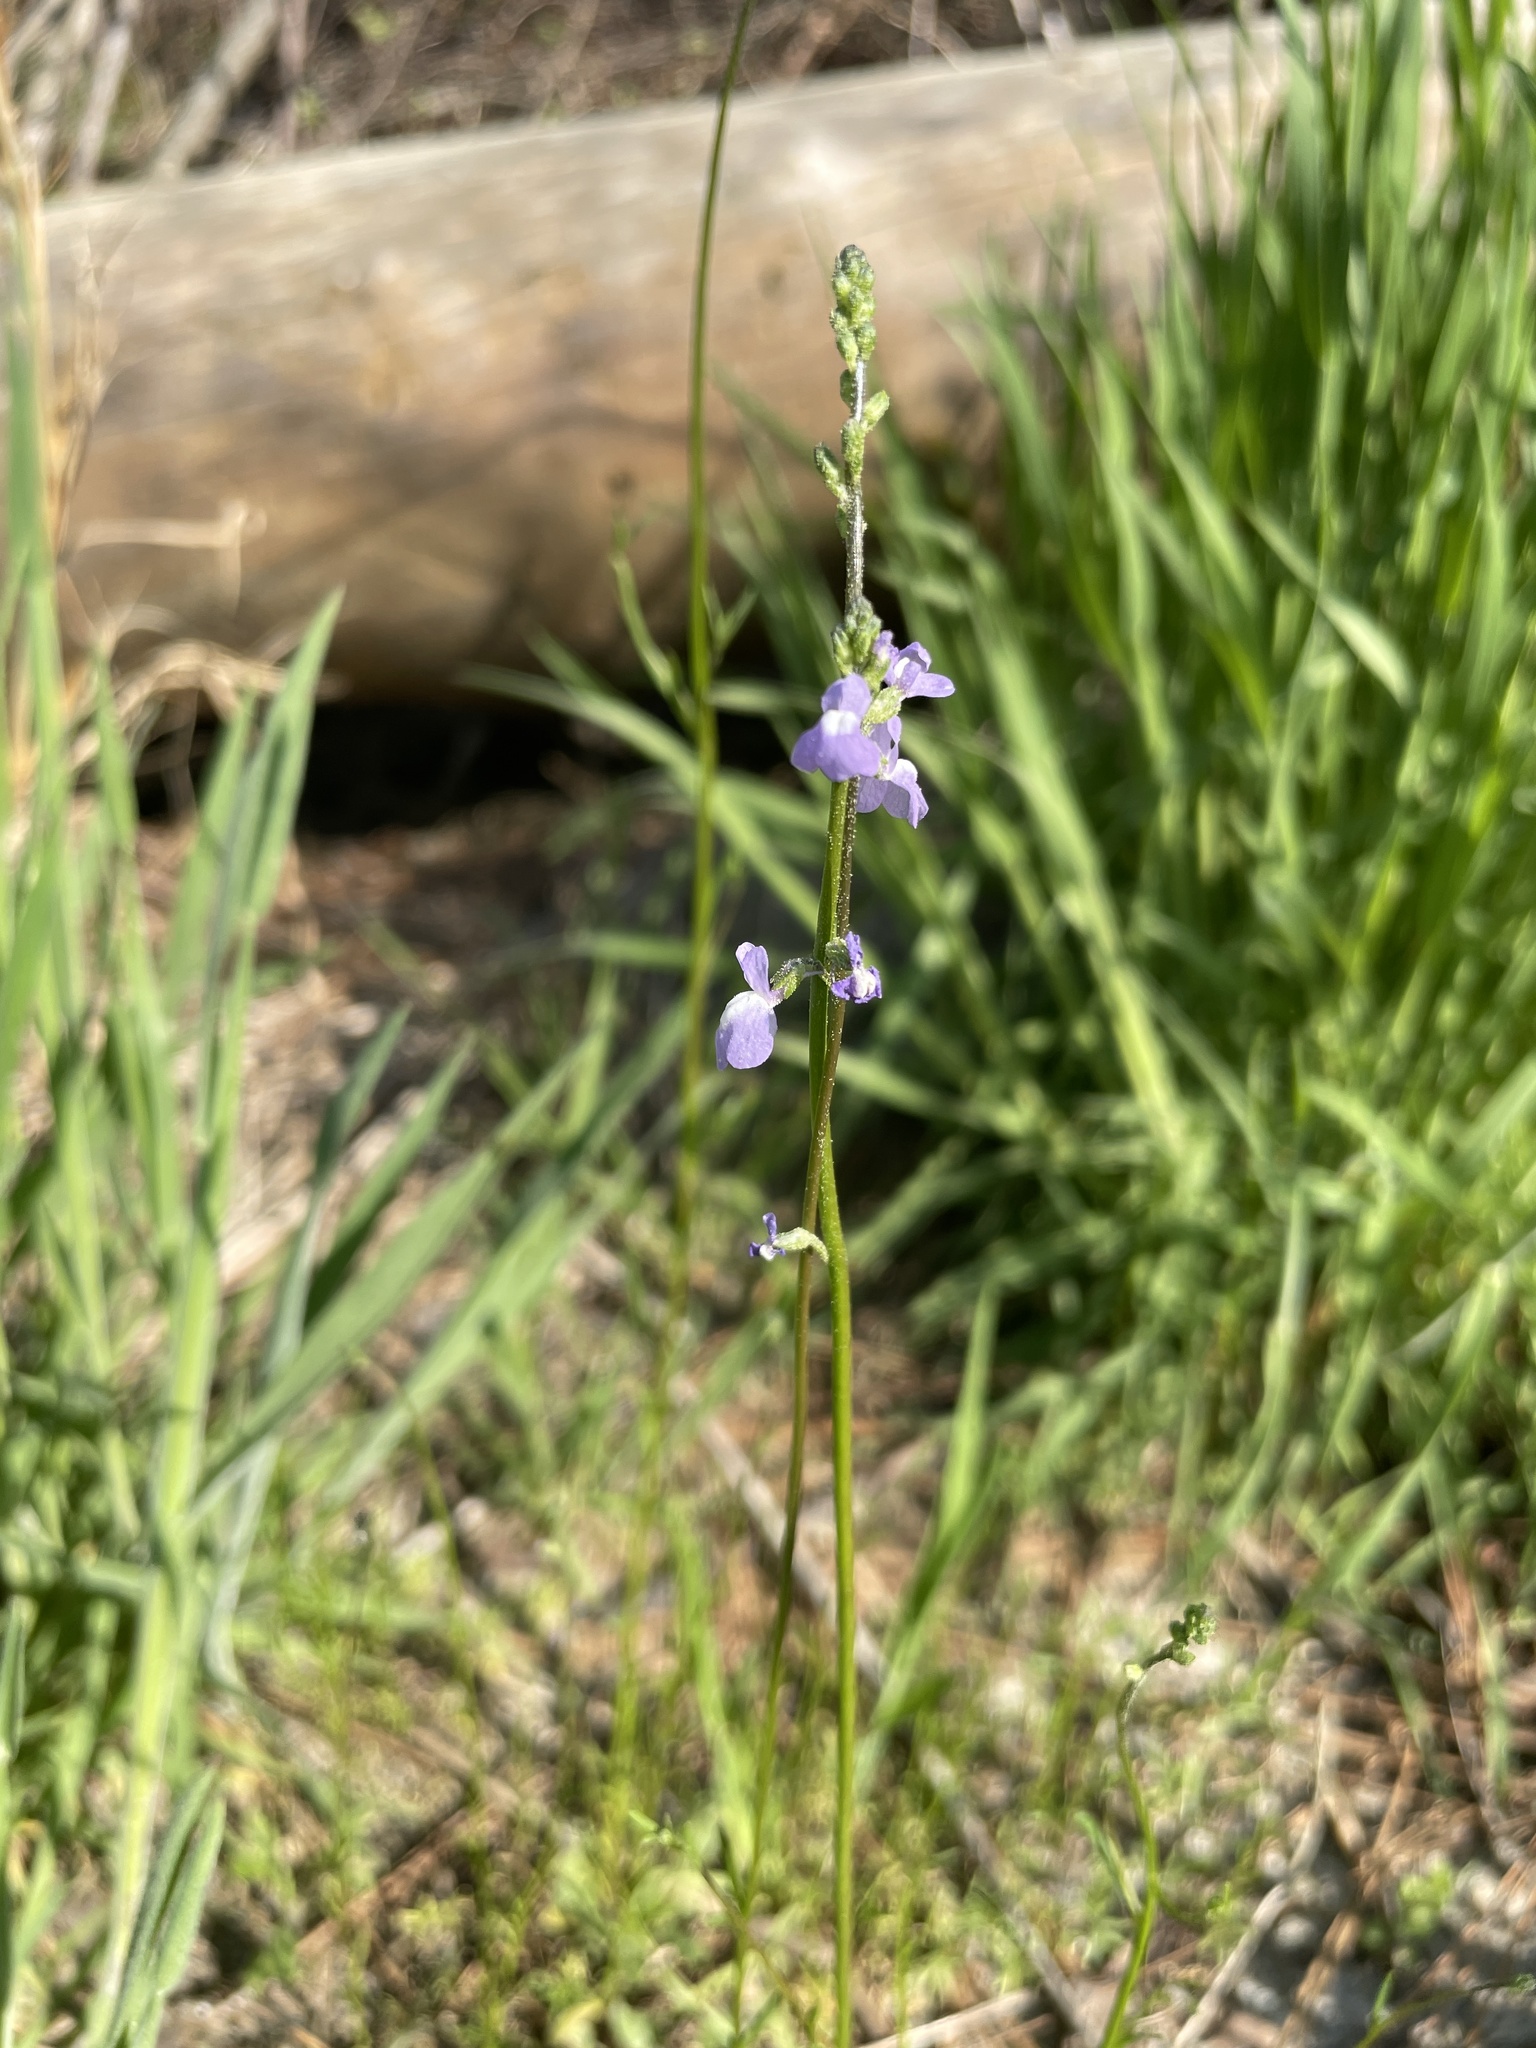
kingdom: Plantae
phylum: Tracheophyta
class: Magnoliopsida
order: Lamiales
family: Plantaginaceae
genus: Nuttallanthus
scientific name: Nuttallanthus canadensis
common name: Blue toadflax
